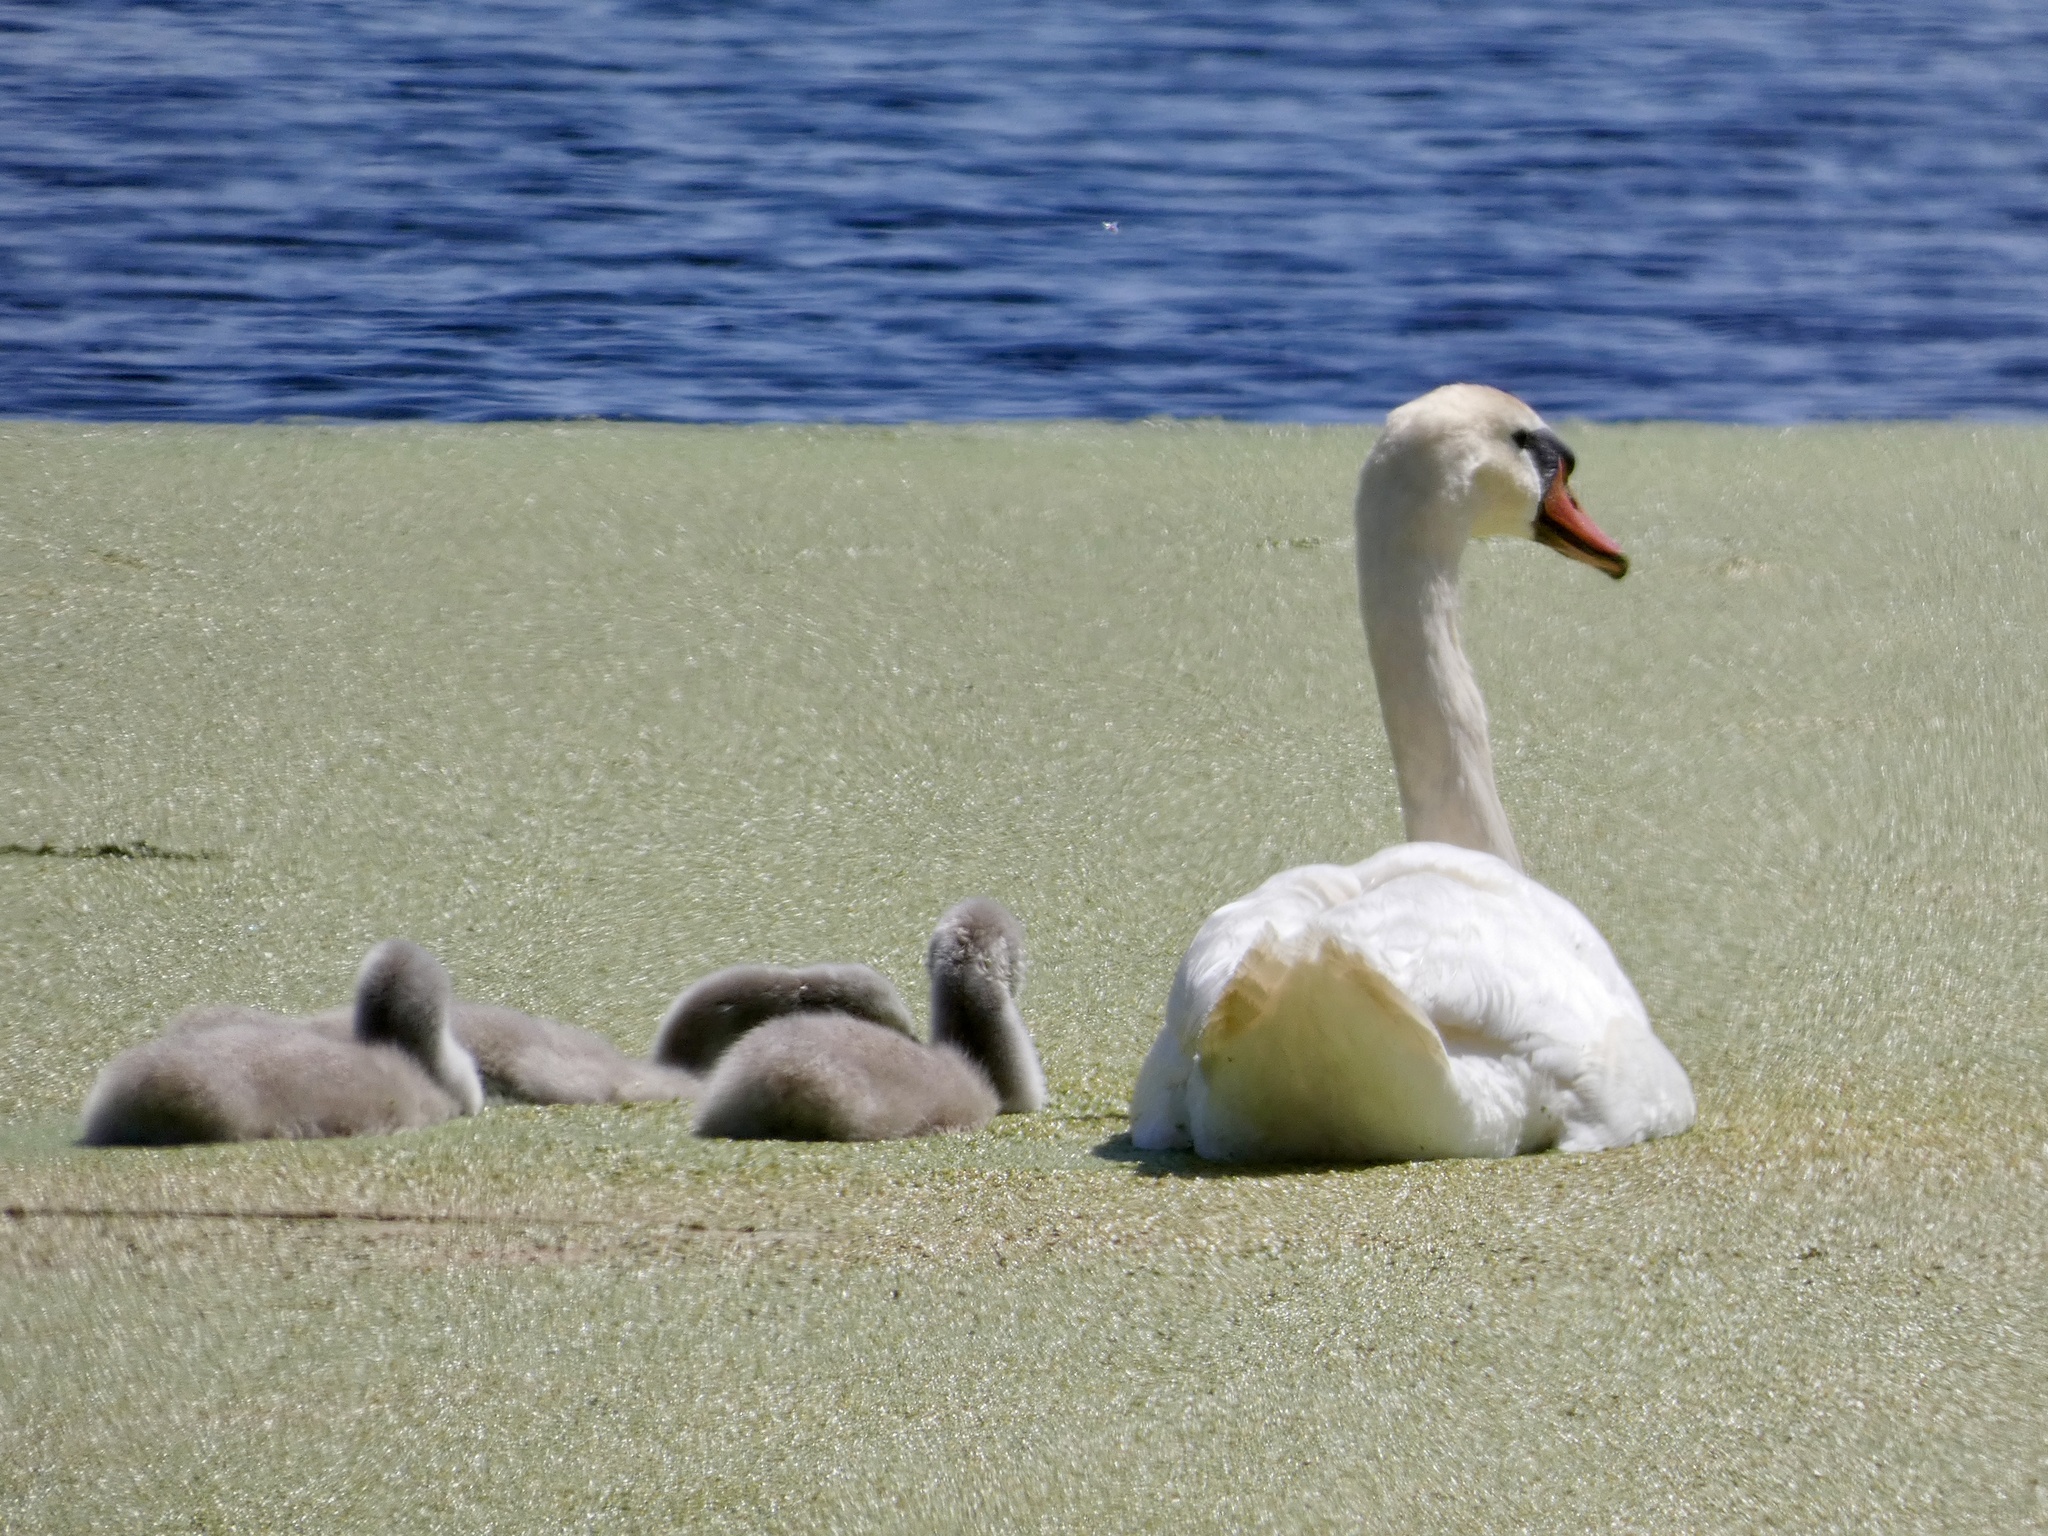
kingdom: Animalia
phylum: Chordata
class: Aves
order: Anseriformes
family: Anatidae
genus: Cygnus
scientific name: Cygnus olor
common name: Mute swan
